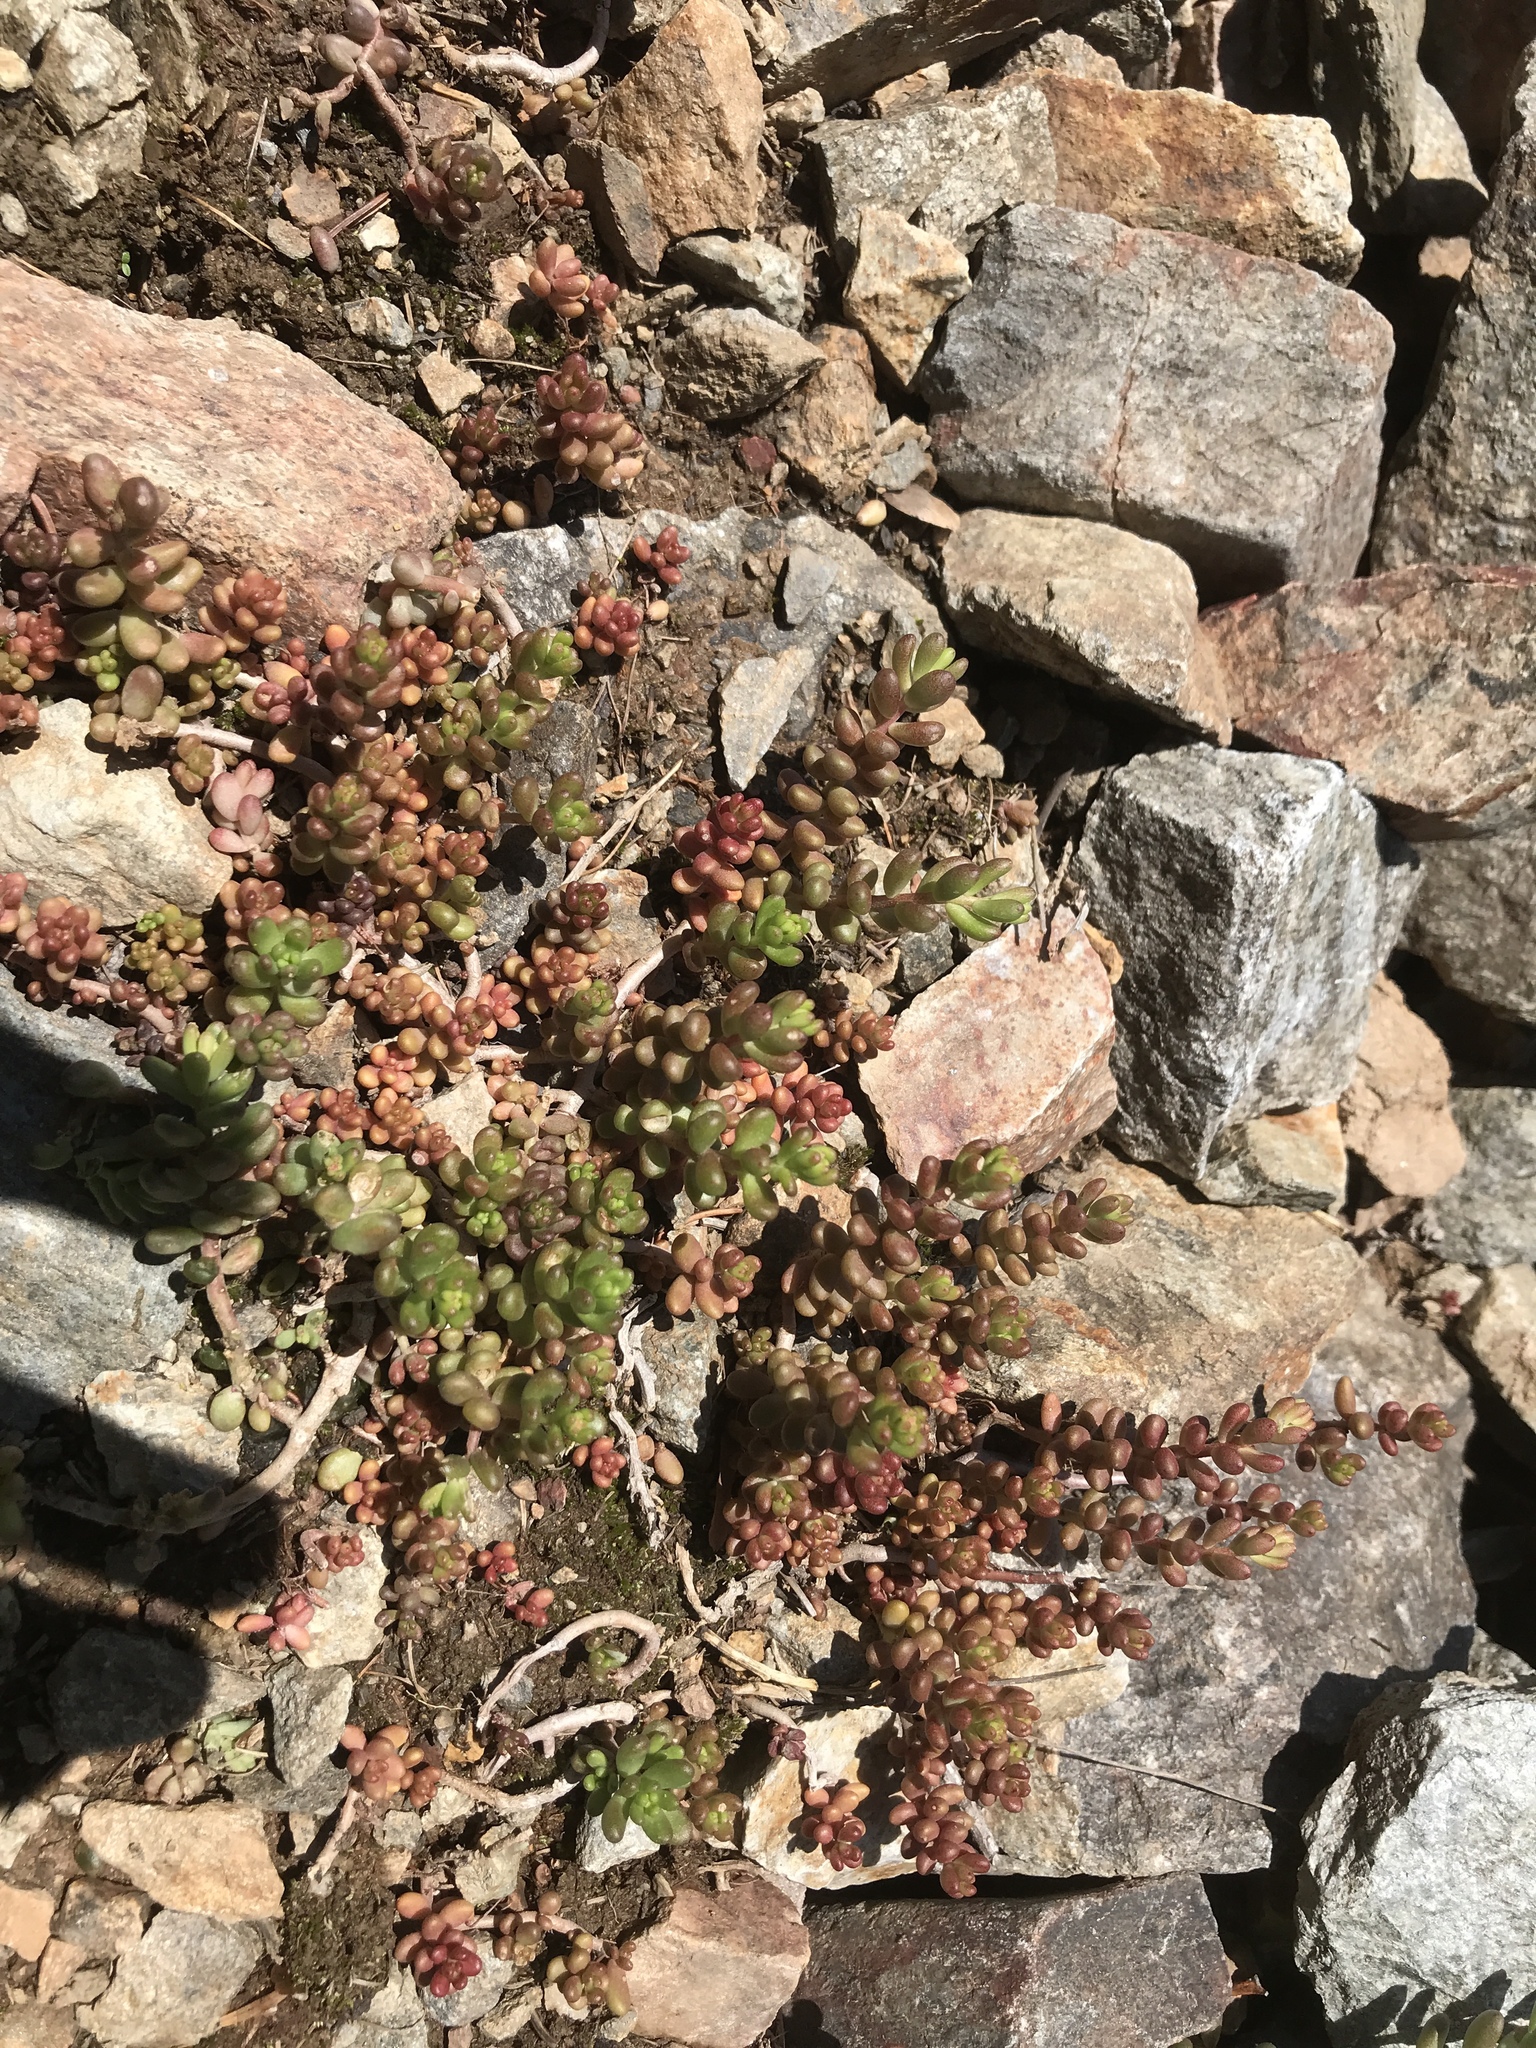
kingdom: Plantae
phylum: Tracheophyta
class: Magnoliopsida
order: Saxifragales
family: Crassulaceae
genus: Sedum
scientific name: Sedum album
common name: White stonecrop
